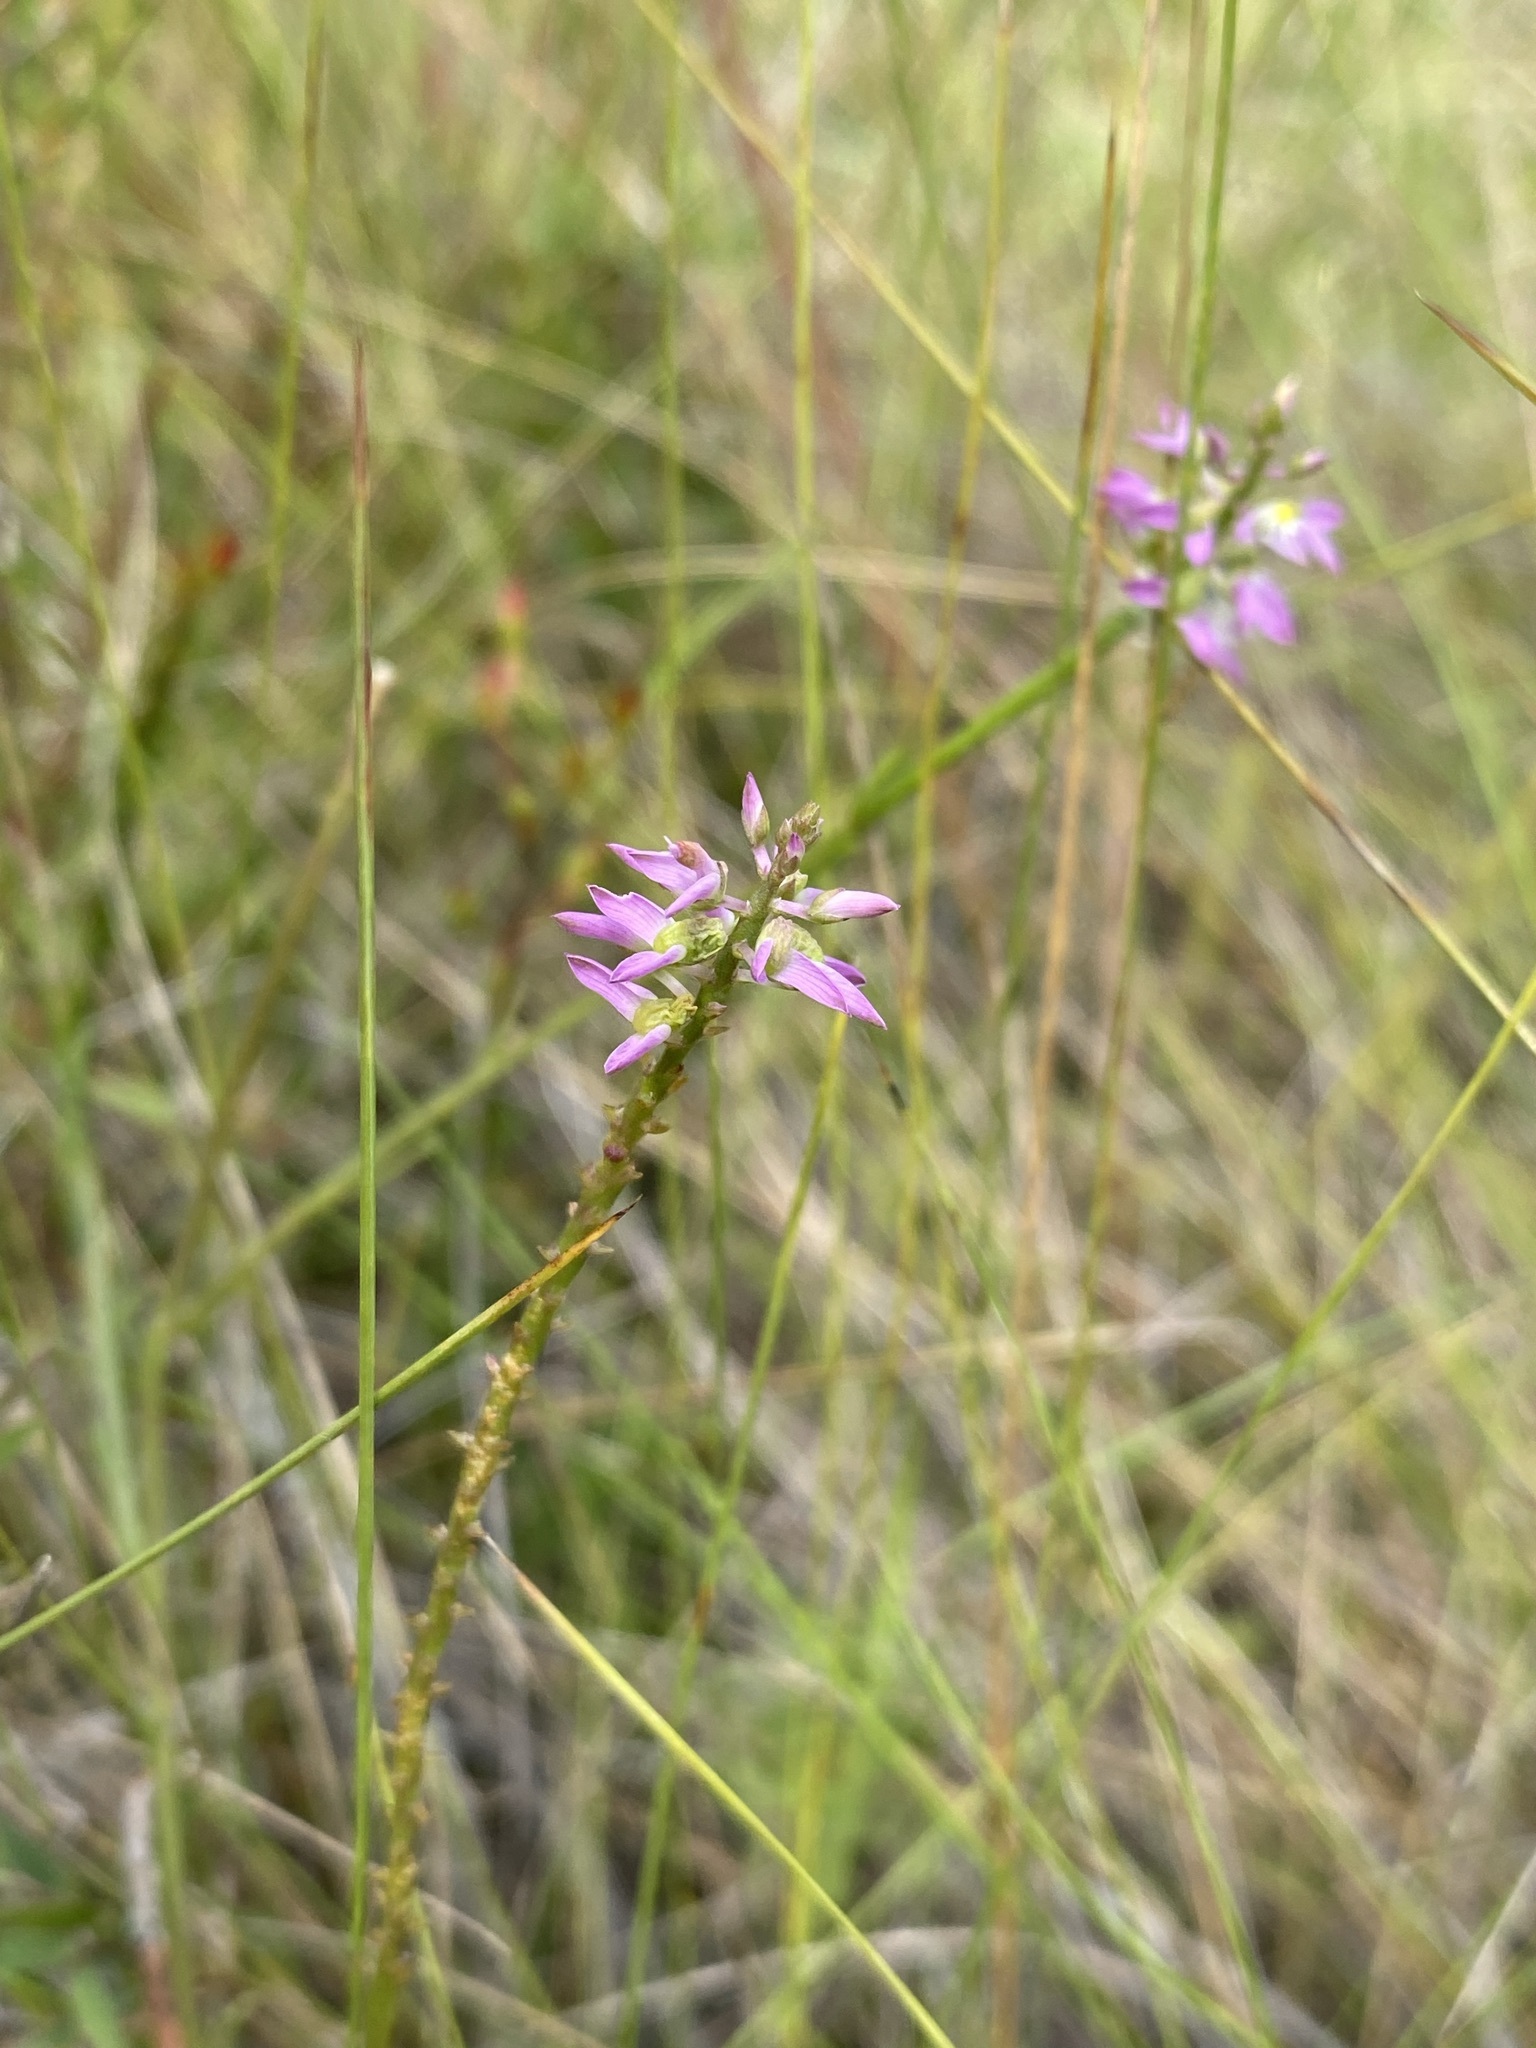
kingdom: Plantae
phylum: Tracheophyta
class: Magnoliopsida
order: Fabales
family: Polygalaceae
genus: Polygala
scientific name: Polygala hookeri
